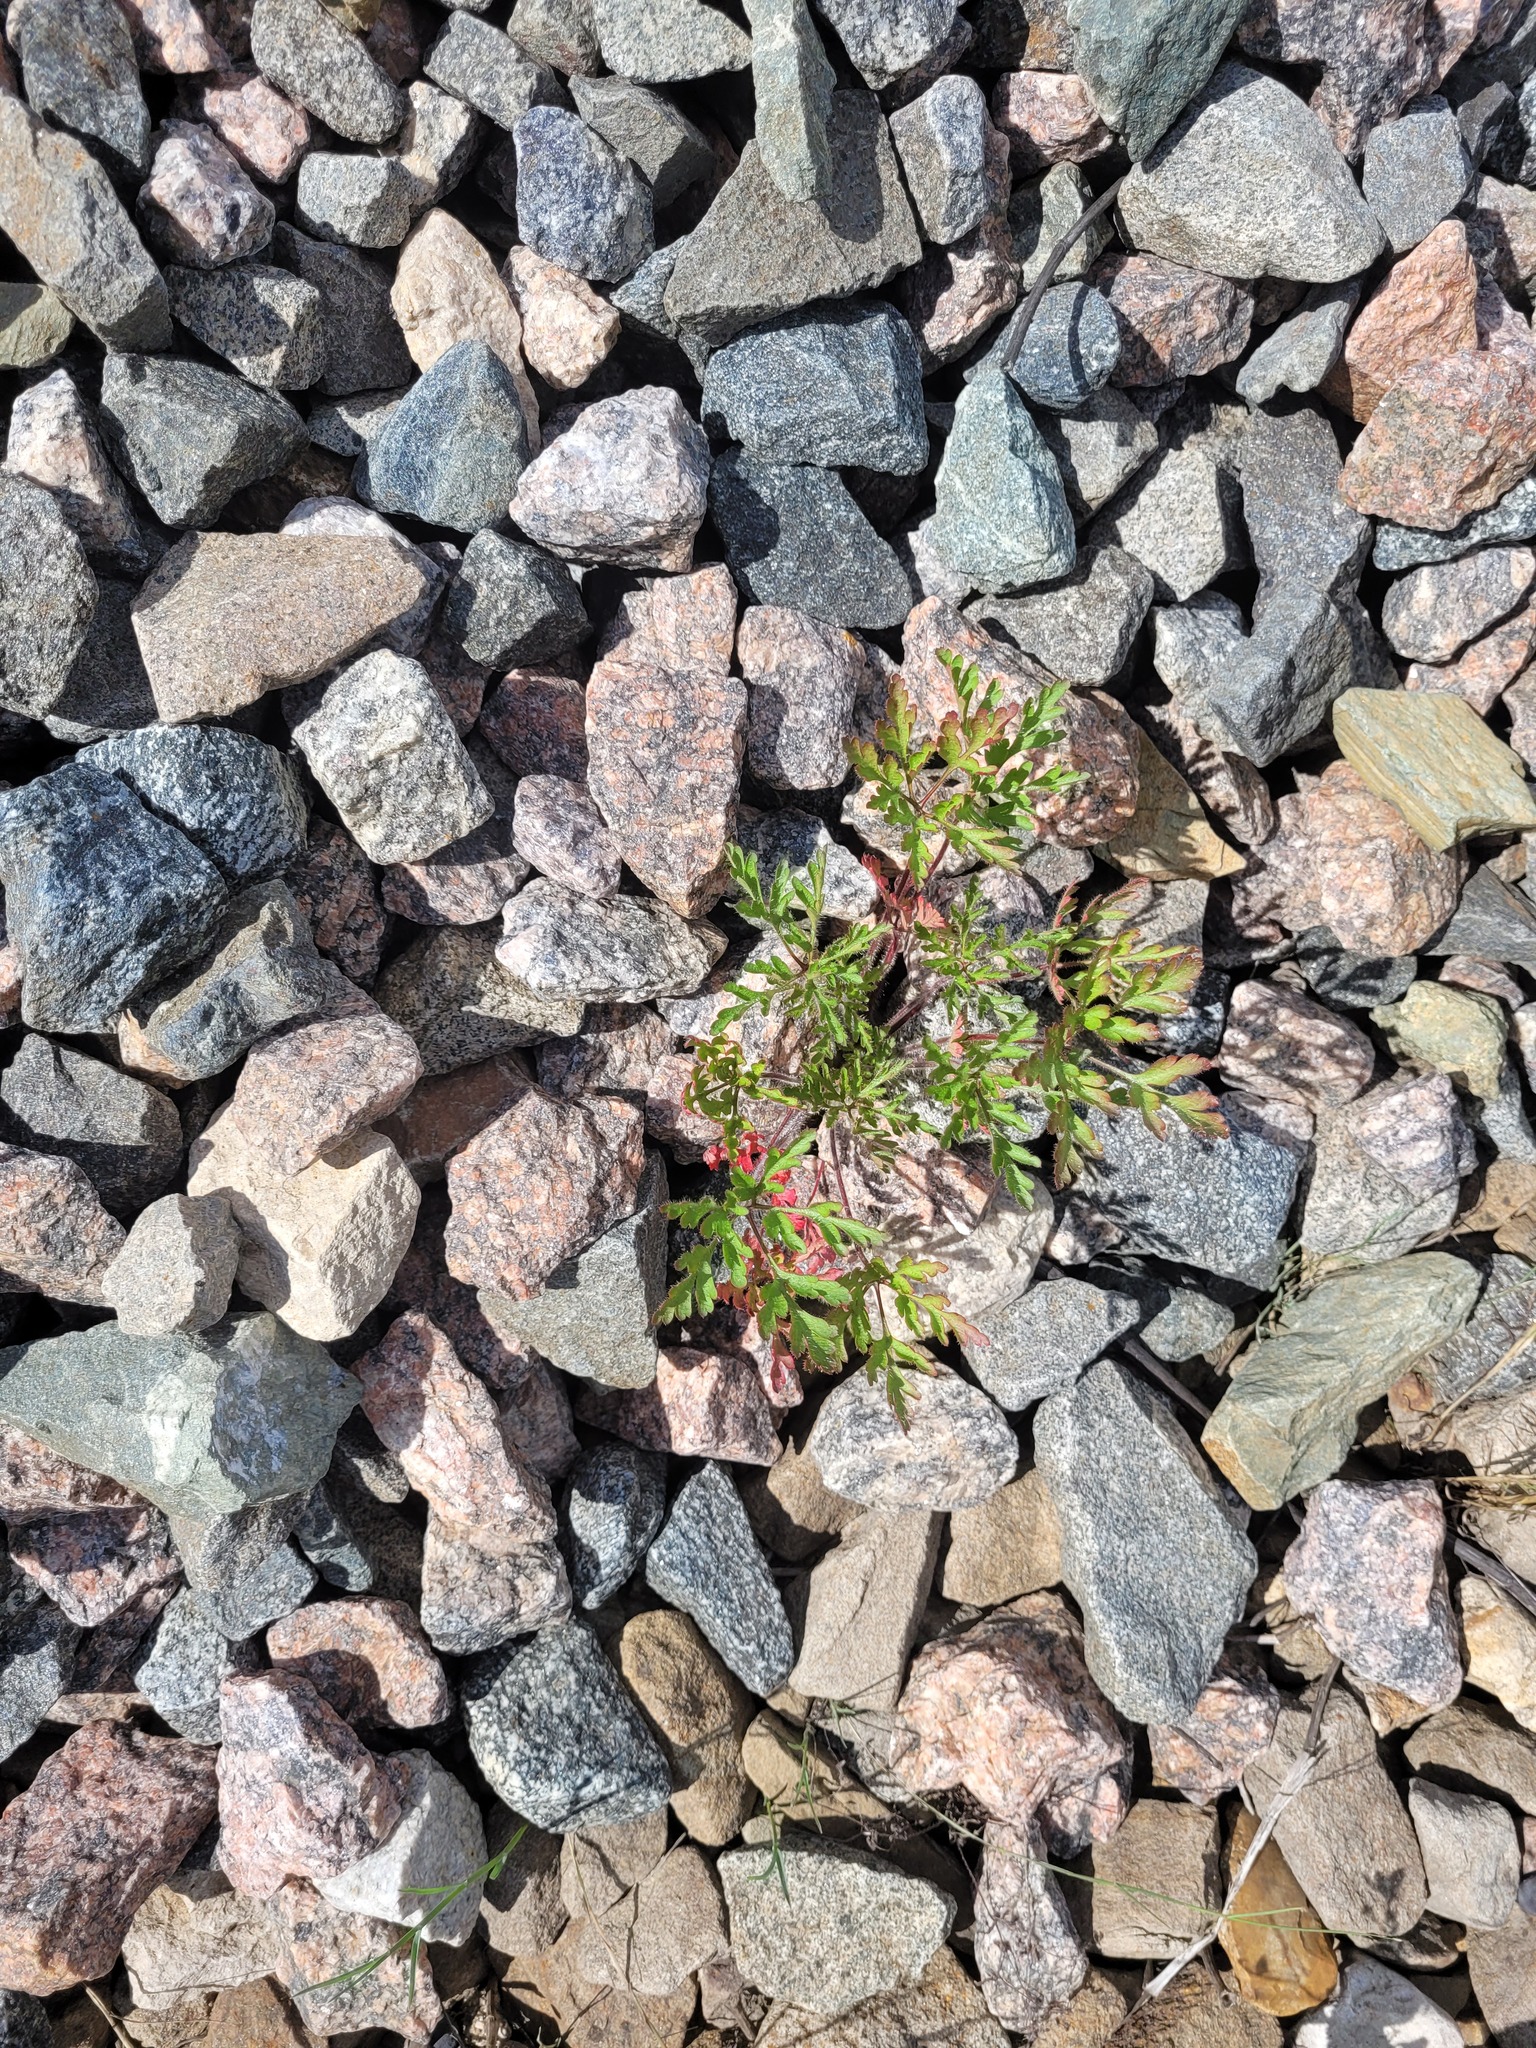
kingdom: Plantae
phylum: Tracheophyta
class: Magnoliopsida
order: Geraniales
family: Geraniaceae
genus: Geranium
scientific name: Geranium robertianum
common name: Herb-robert
